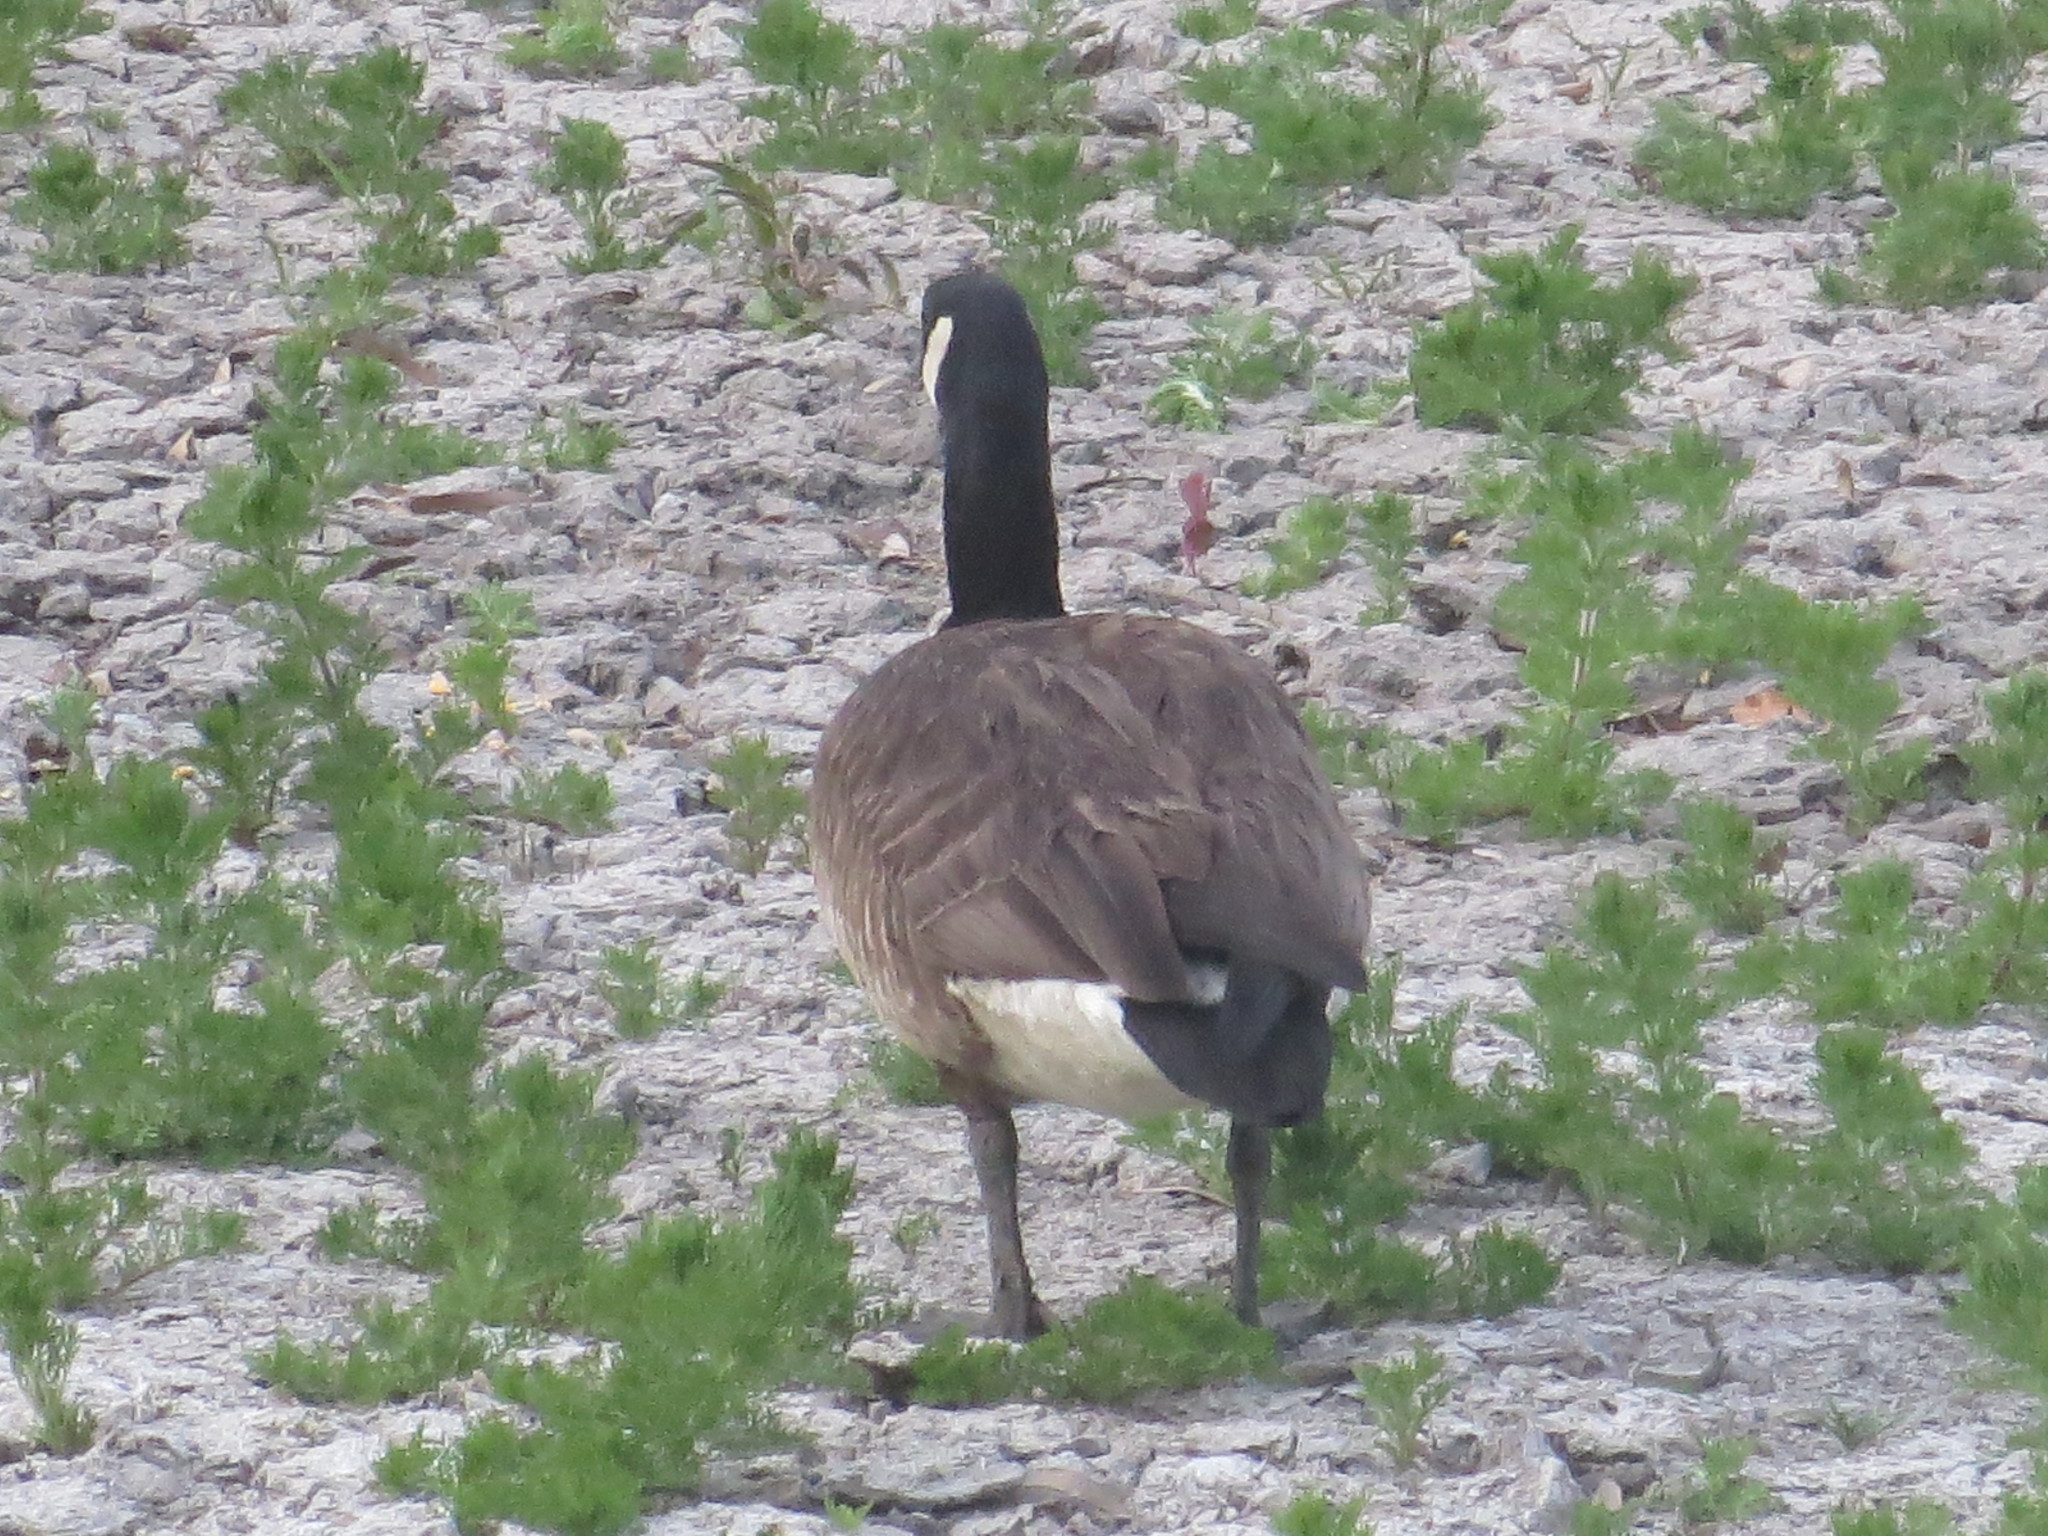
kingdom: Animalia
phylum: Chordata
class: Aves
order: Anseriformes
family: Anatidae
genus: Branta
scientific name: Branta canadensis
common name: Canada goose
